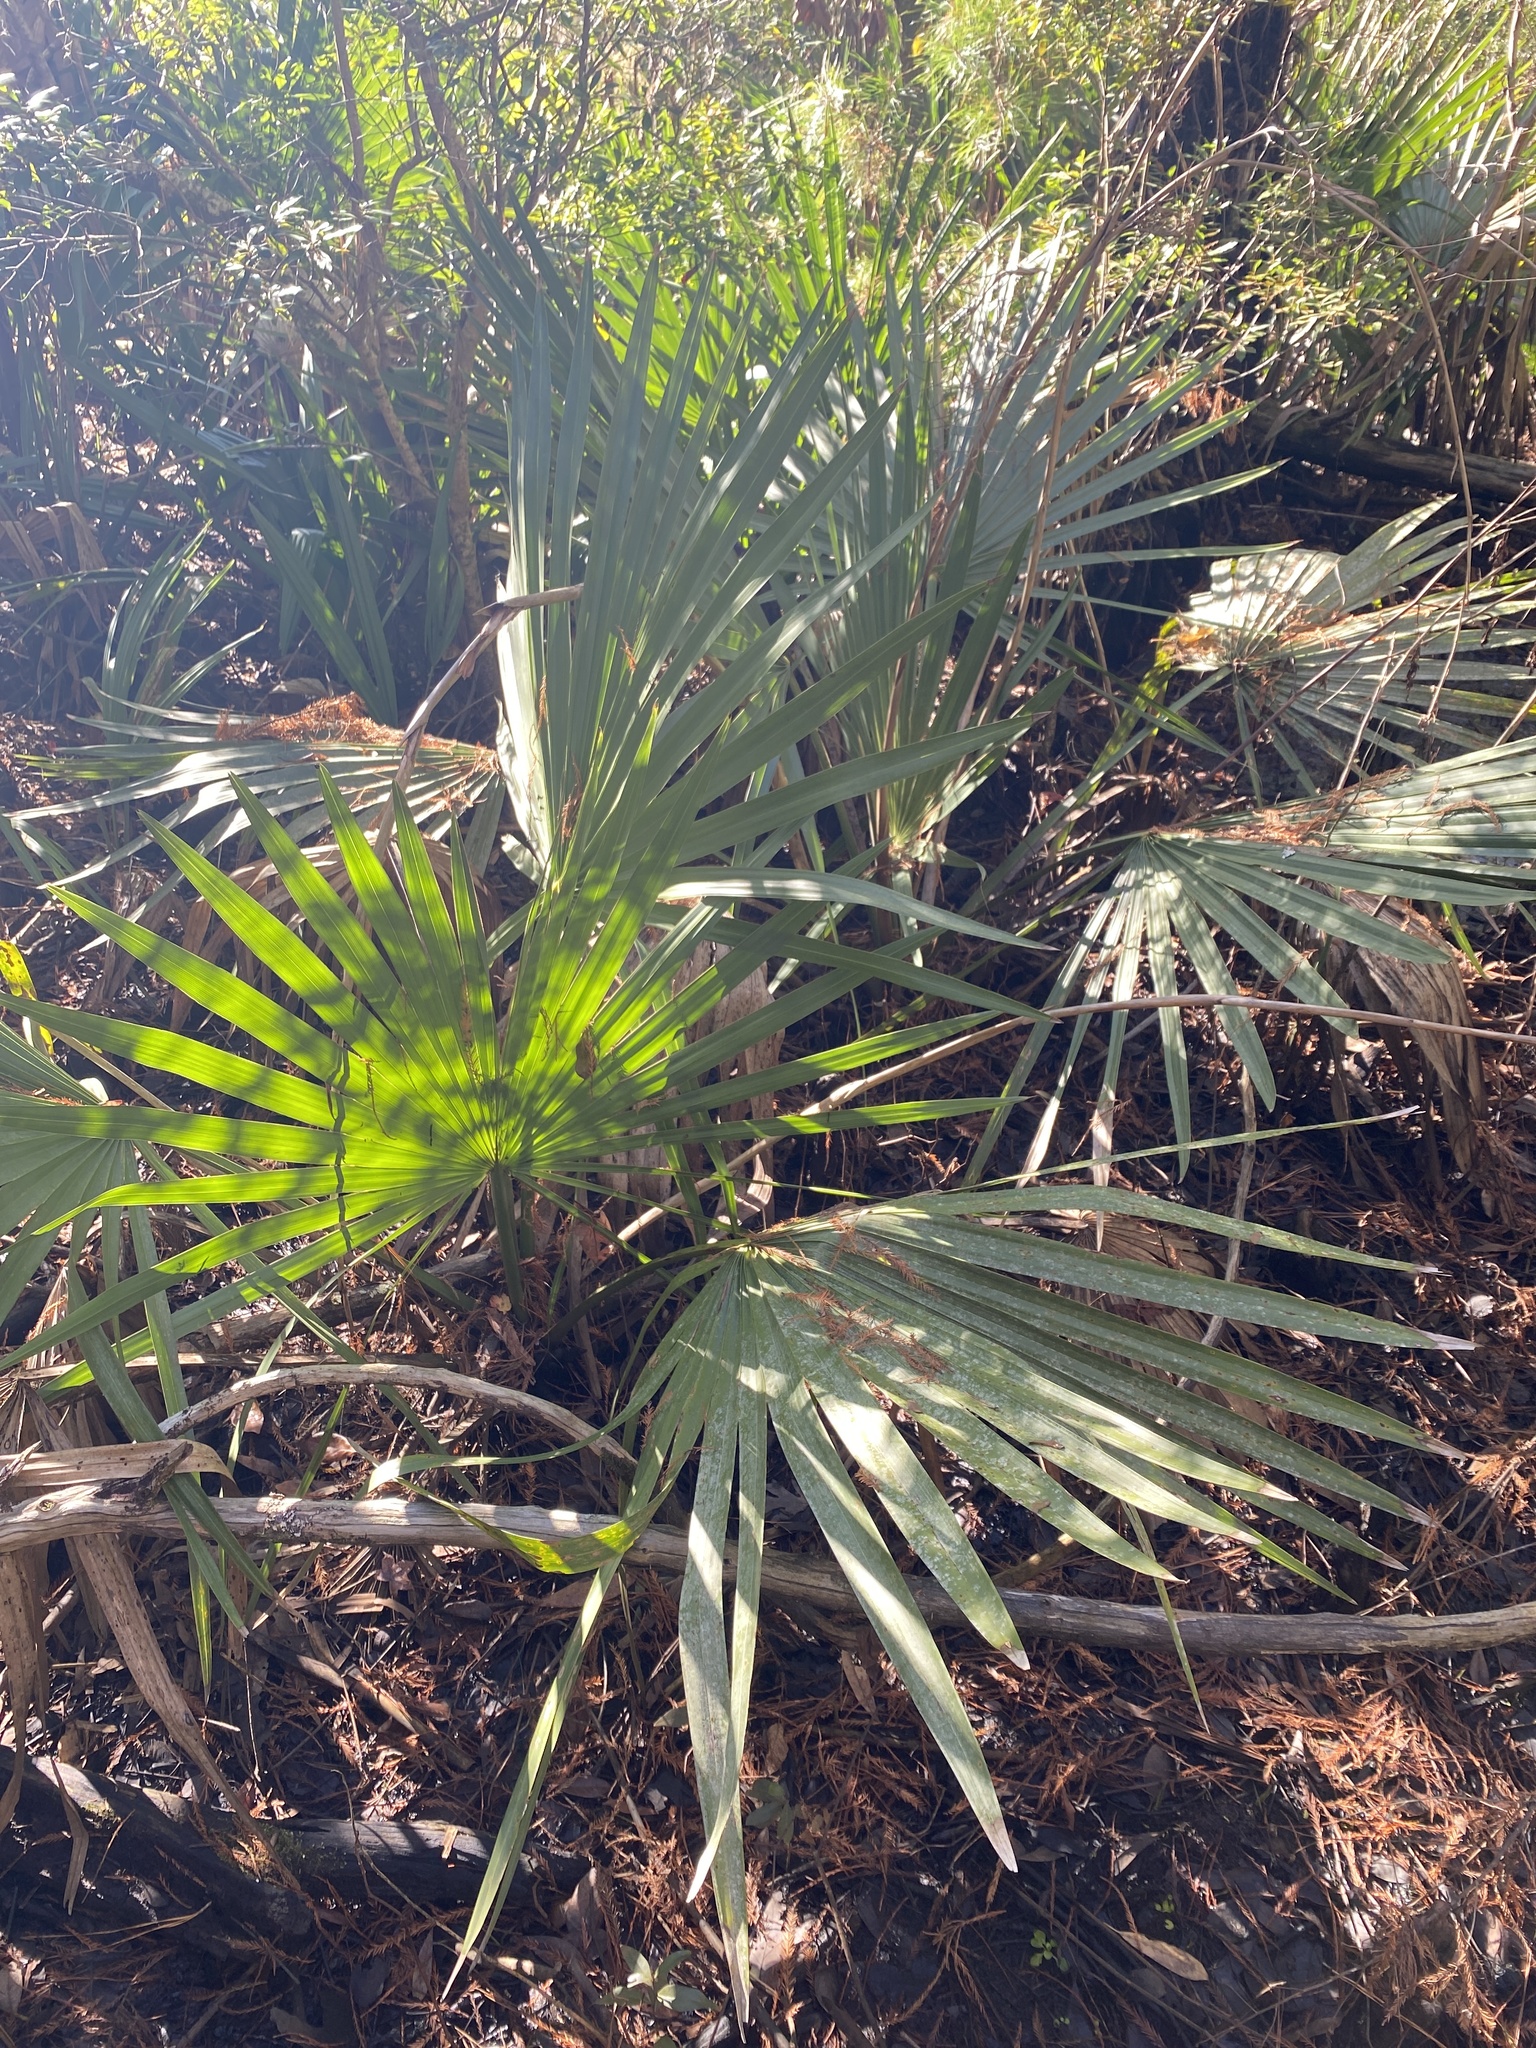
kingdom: Plantae
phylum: Tracheophyta
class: Liliopsida
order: Arecales
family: Arecaceae
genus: Sabal
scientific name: Sabal minor
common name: Dwarf palmetto
